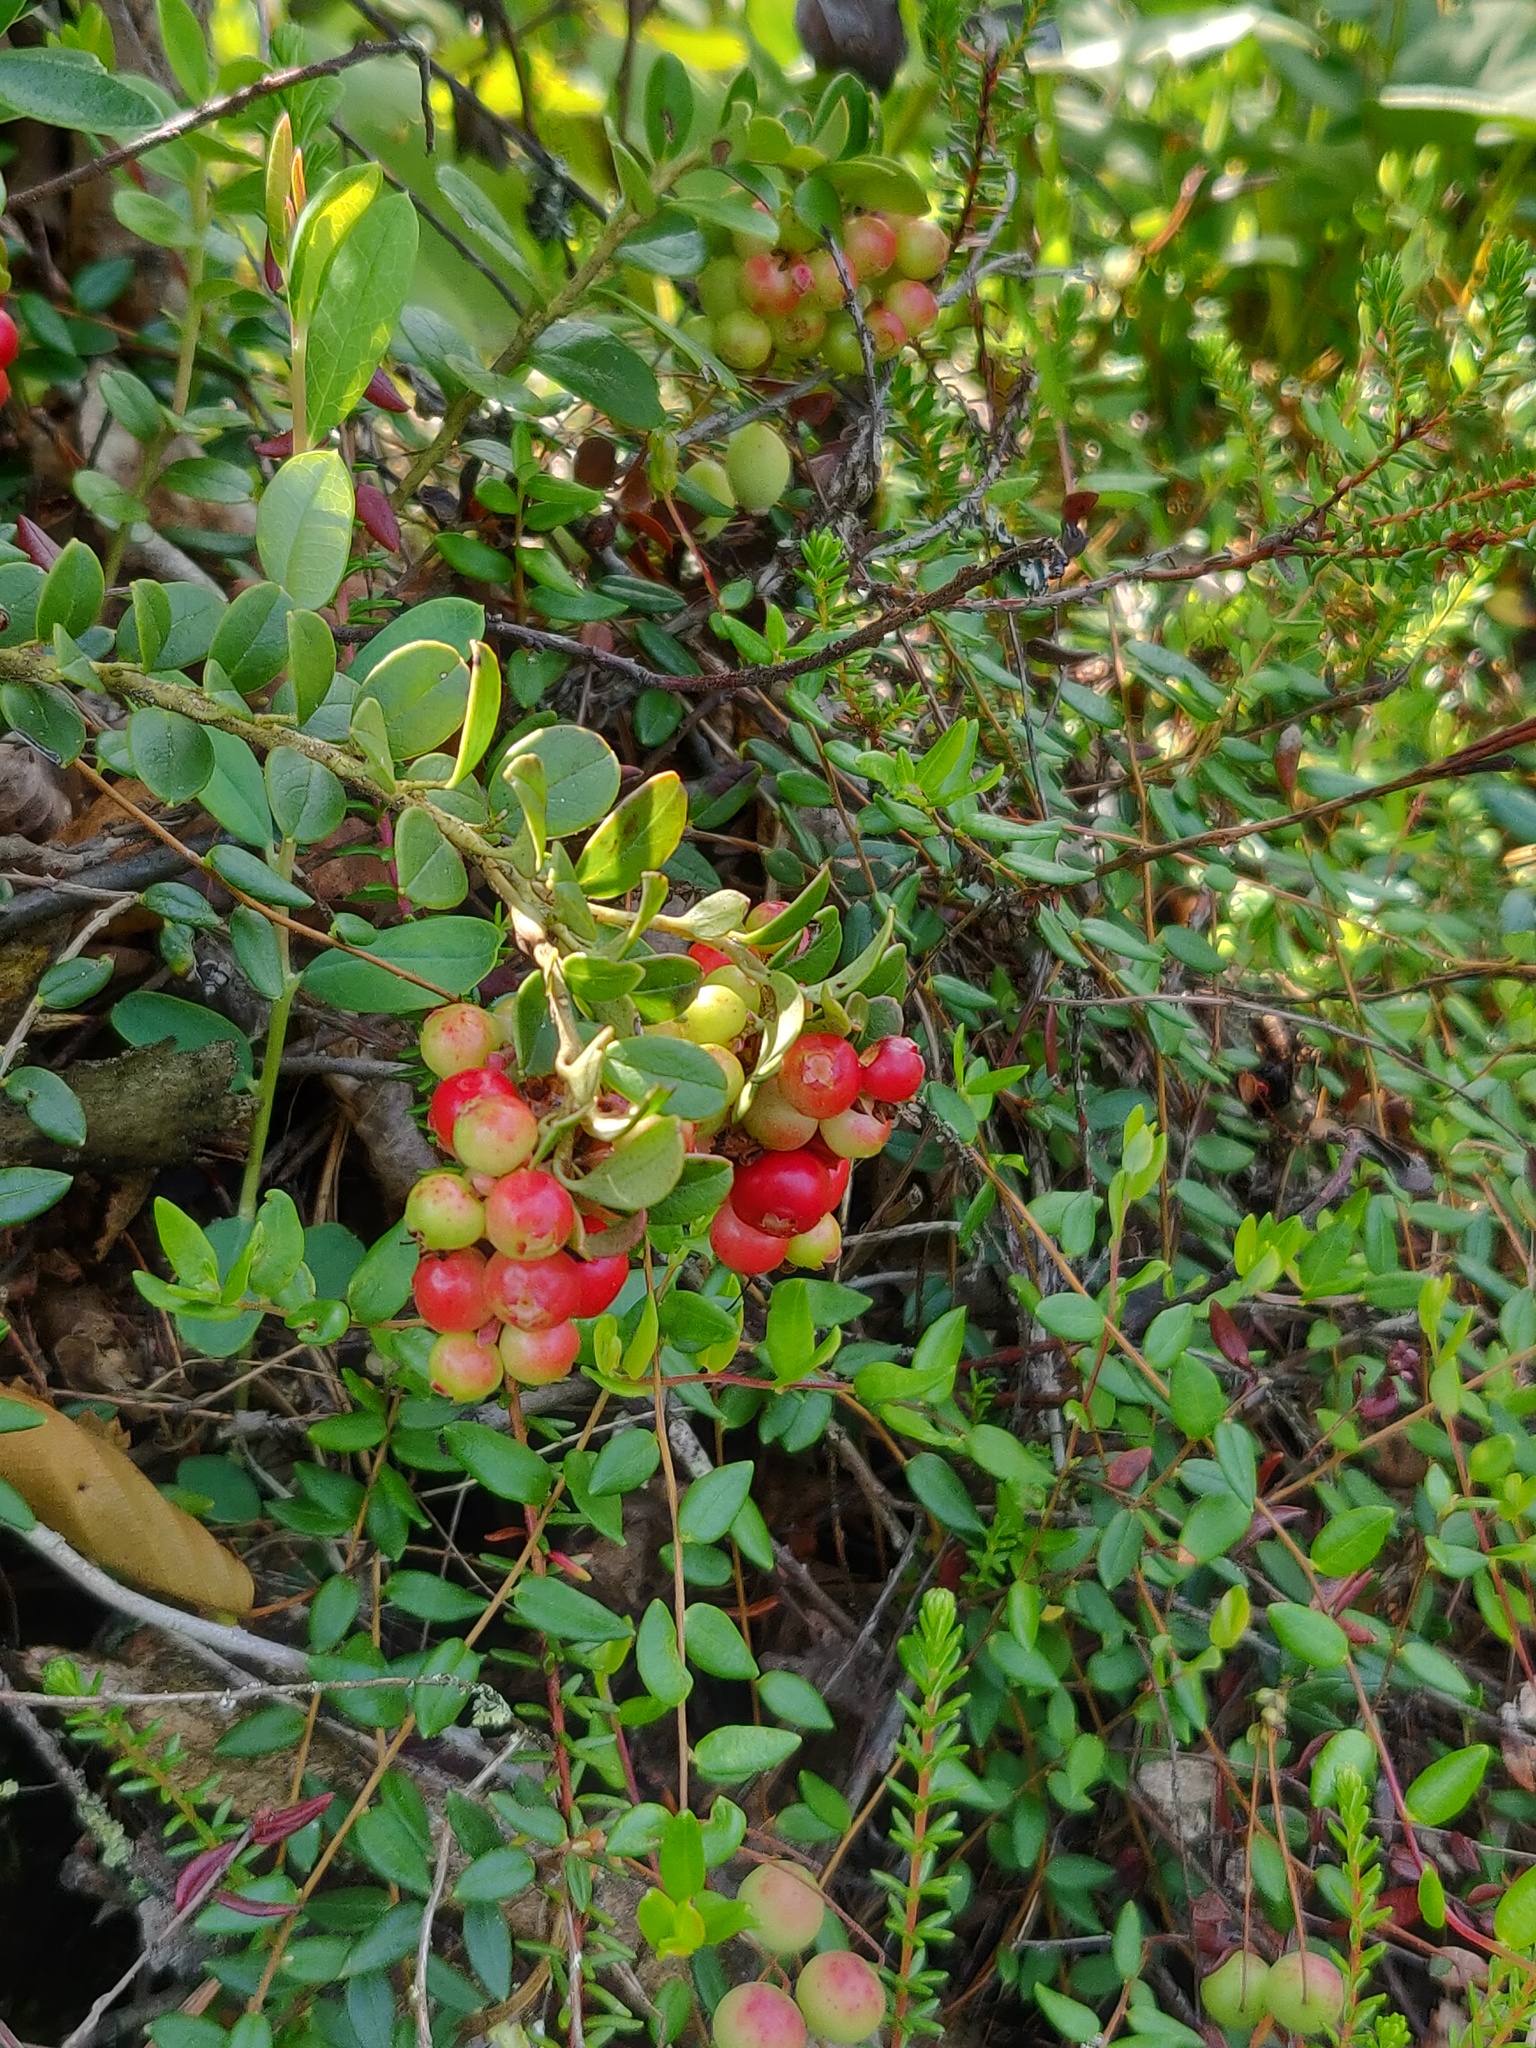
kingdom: Plantae
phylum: Tracheophyta
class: Magnoliopsida
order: Ericales
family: Ericaceae
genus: Vaccinium
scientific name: Vaccinium vitis-idaea
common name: Cowberry
